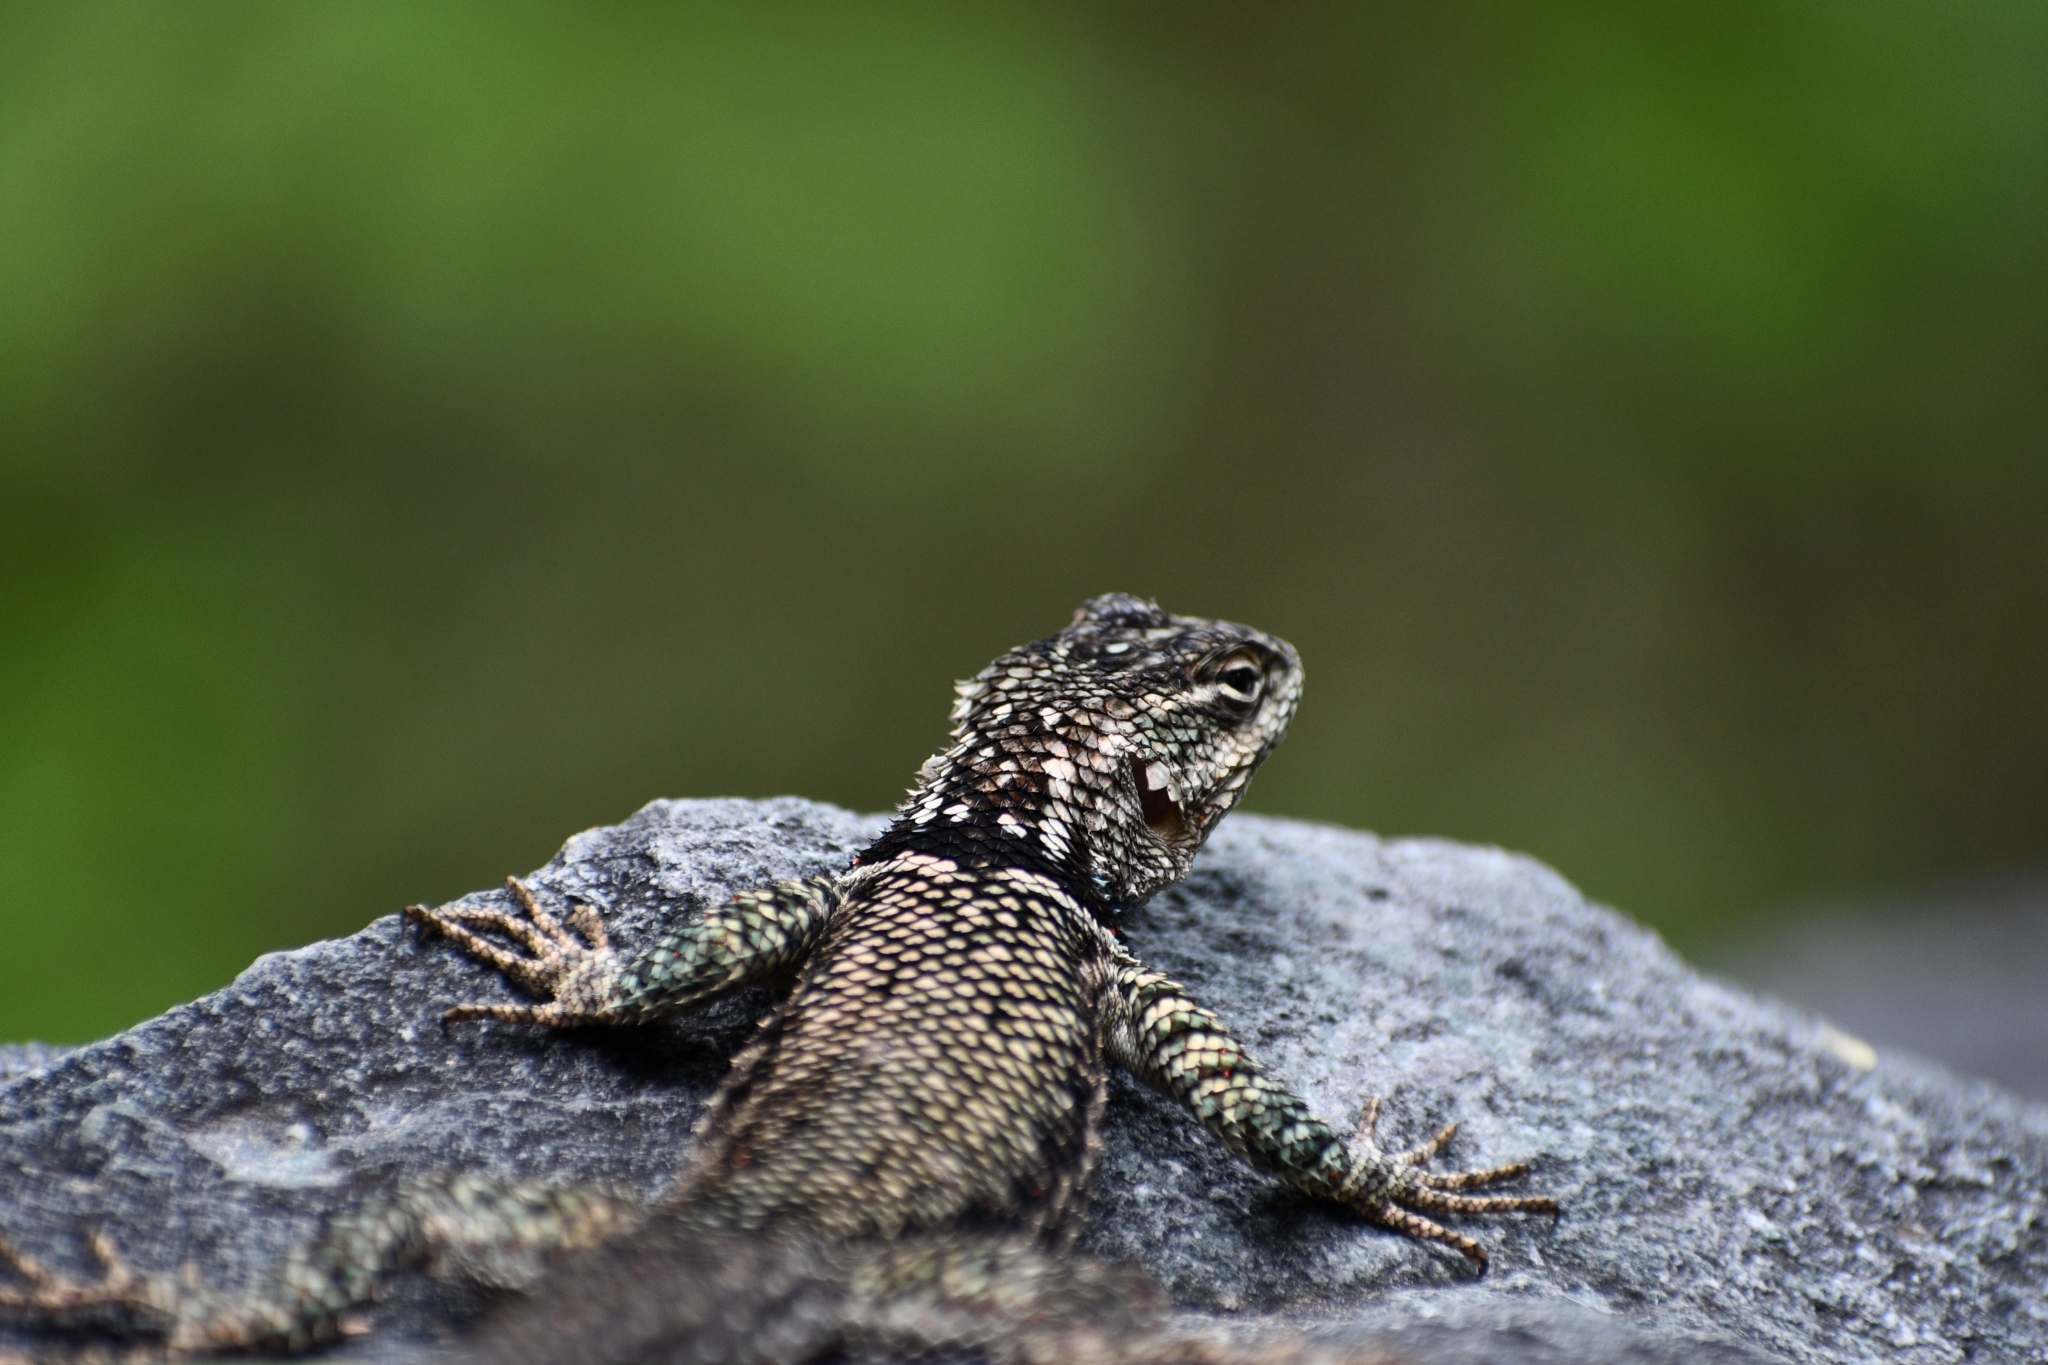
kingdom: Animalia
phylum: Chordata
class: Squamata
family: Phrynosomatidae
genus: Sceloporus
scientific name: Sceloporus jarrovii
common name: Yarrow's spiny lizard
